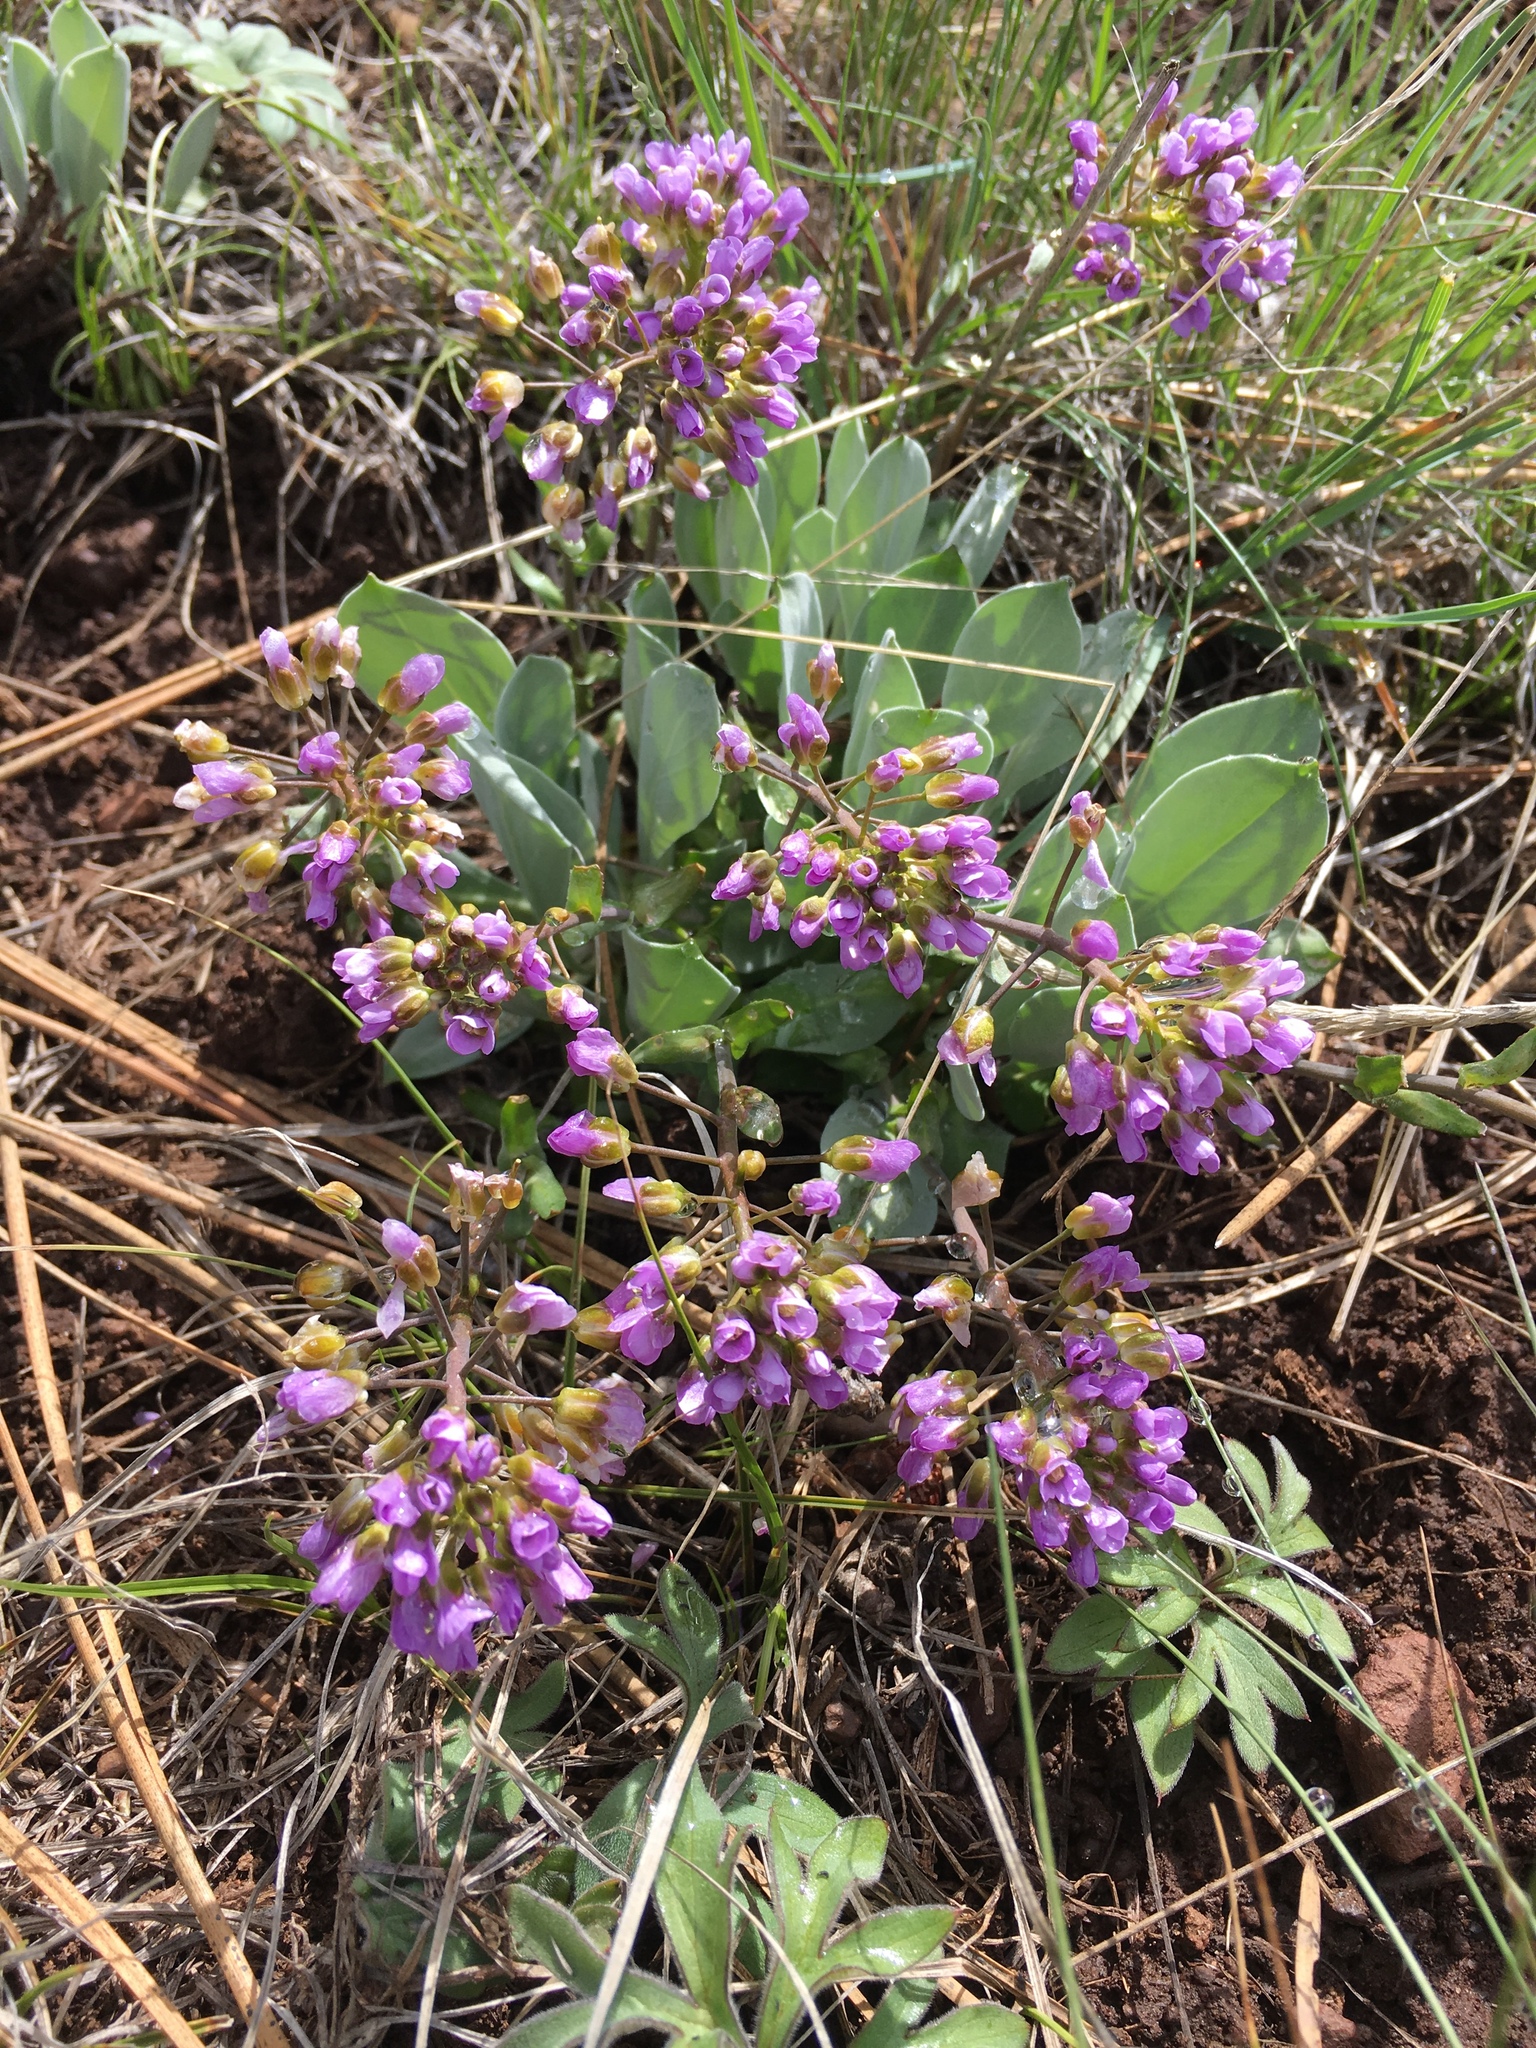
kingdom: Plantae
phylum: Tracheophyta
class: Magnoliopsida
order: Brassicales
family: Brassicaceae
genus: Phoenicaulis
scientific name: Phoenicaulis cheiranthoides
